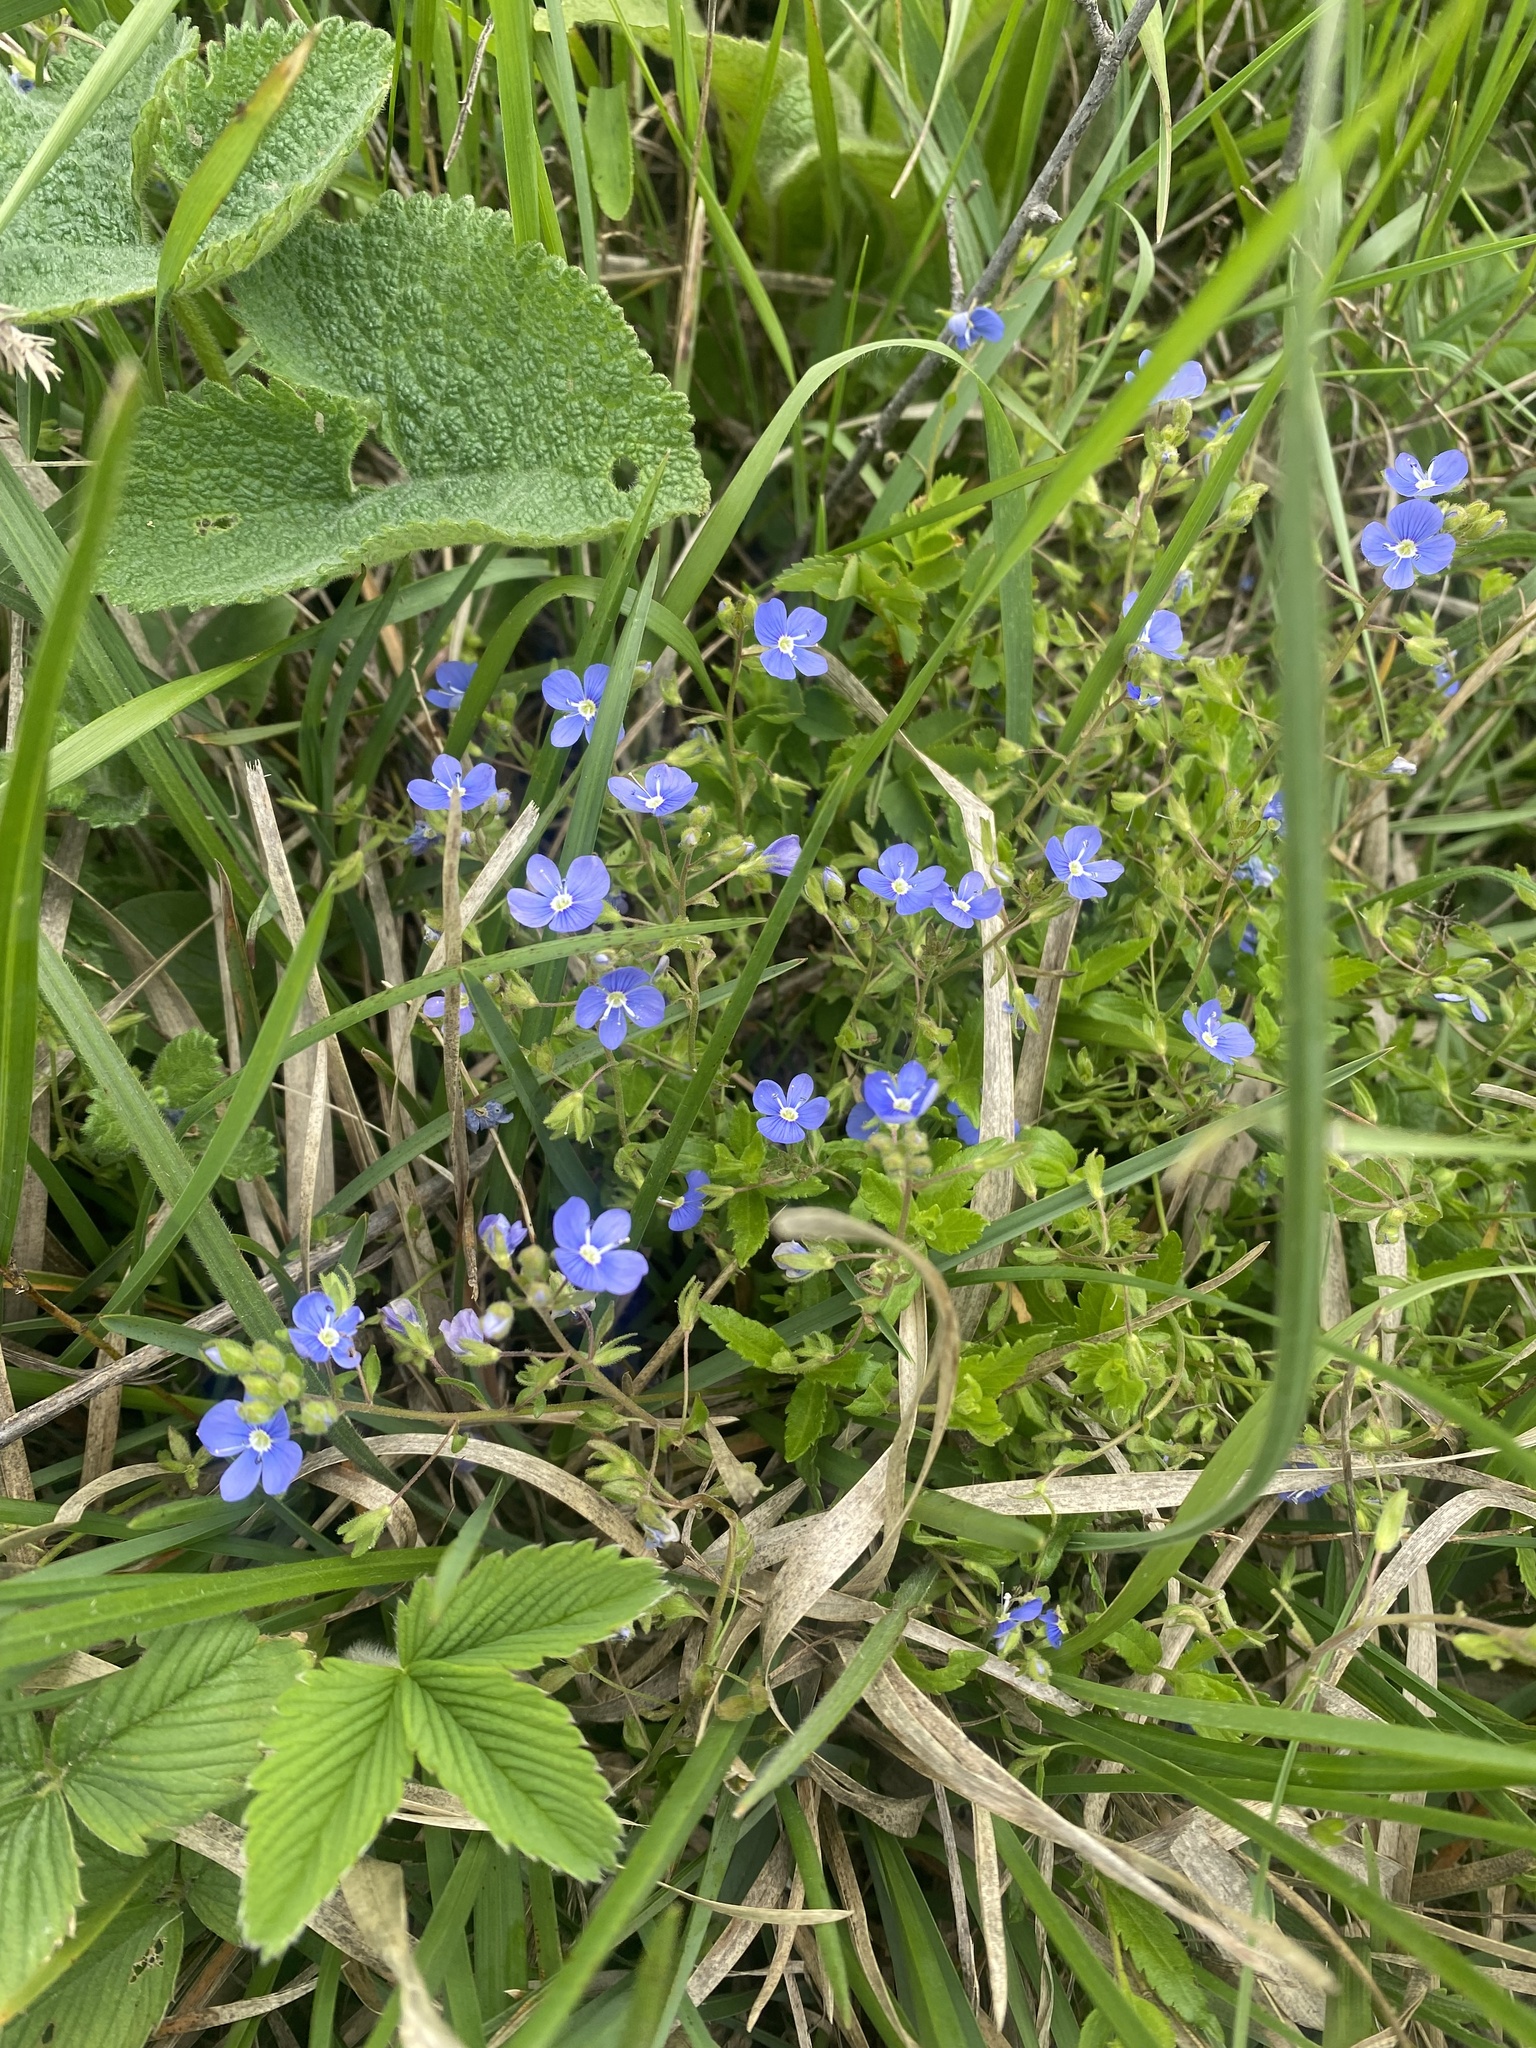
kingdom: Plantae
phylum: Tracheophyta
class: Magnoliopsida
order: Lamiales
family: Plantaginaceae
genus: Veronica
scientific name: Veronica
